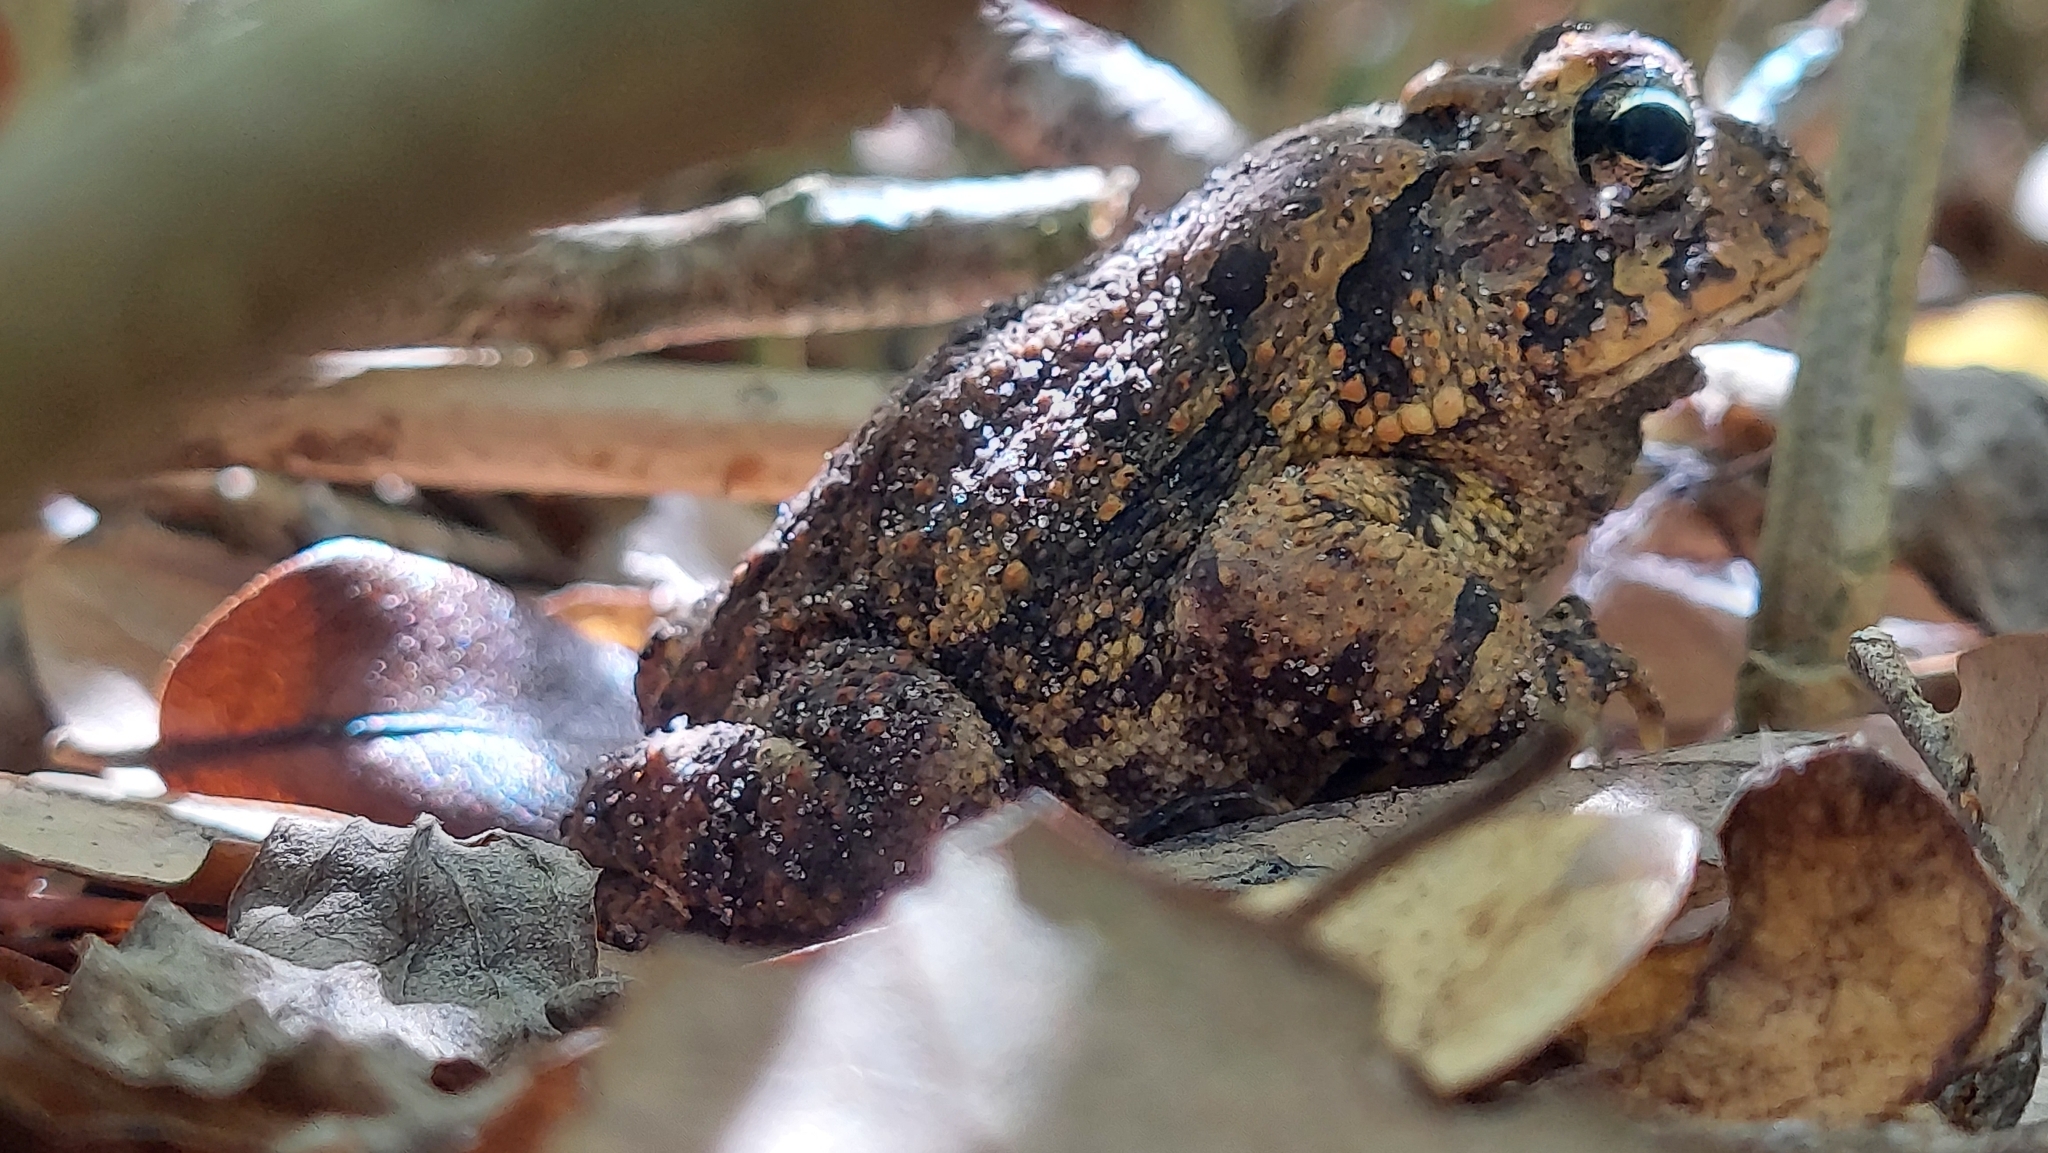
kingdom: Animalia
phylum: Chordata
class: Amphibia
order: Anura
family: Bufonidae
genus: Anaxyrus
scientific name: Anaxyrus terrestris
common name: Southern toad
